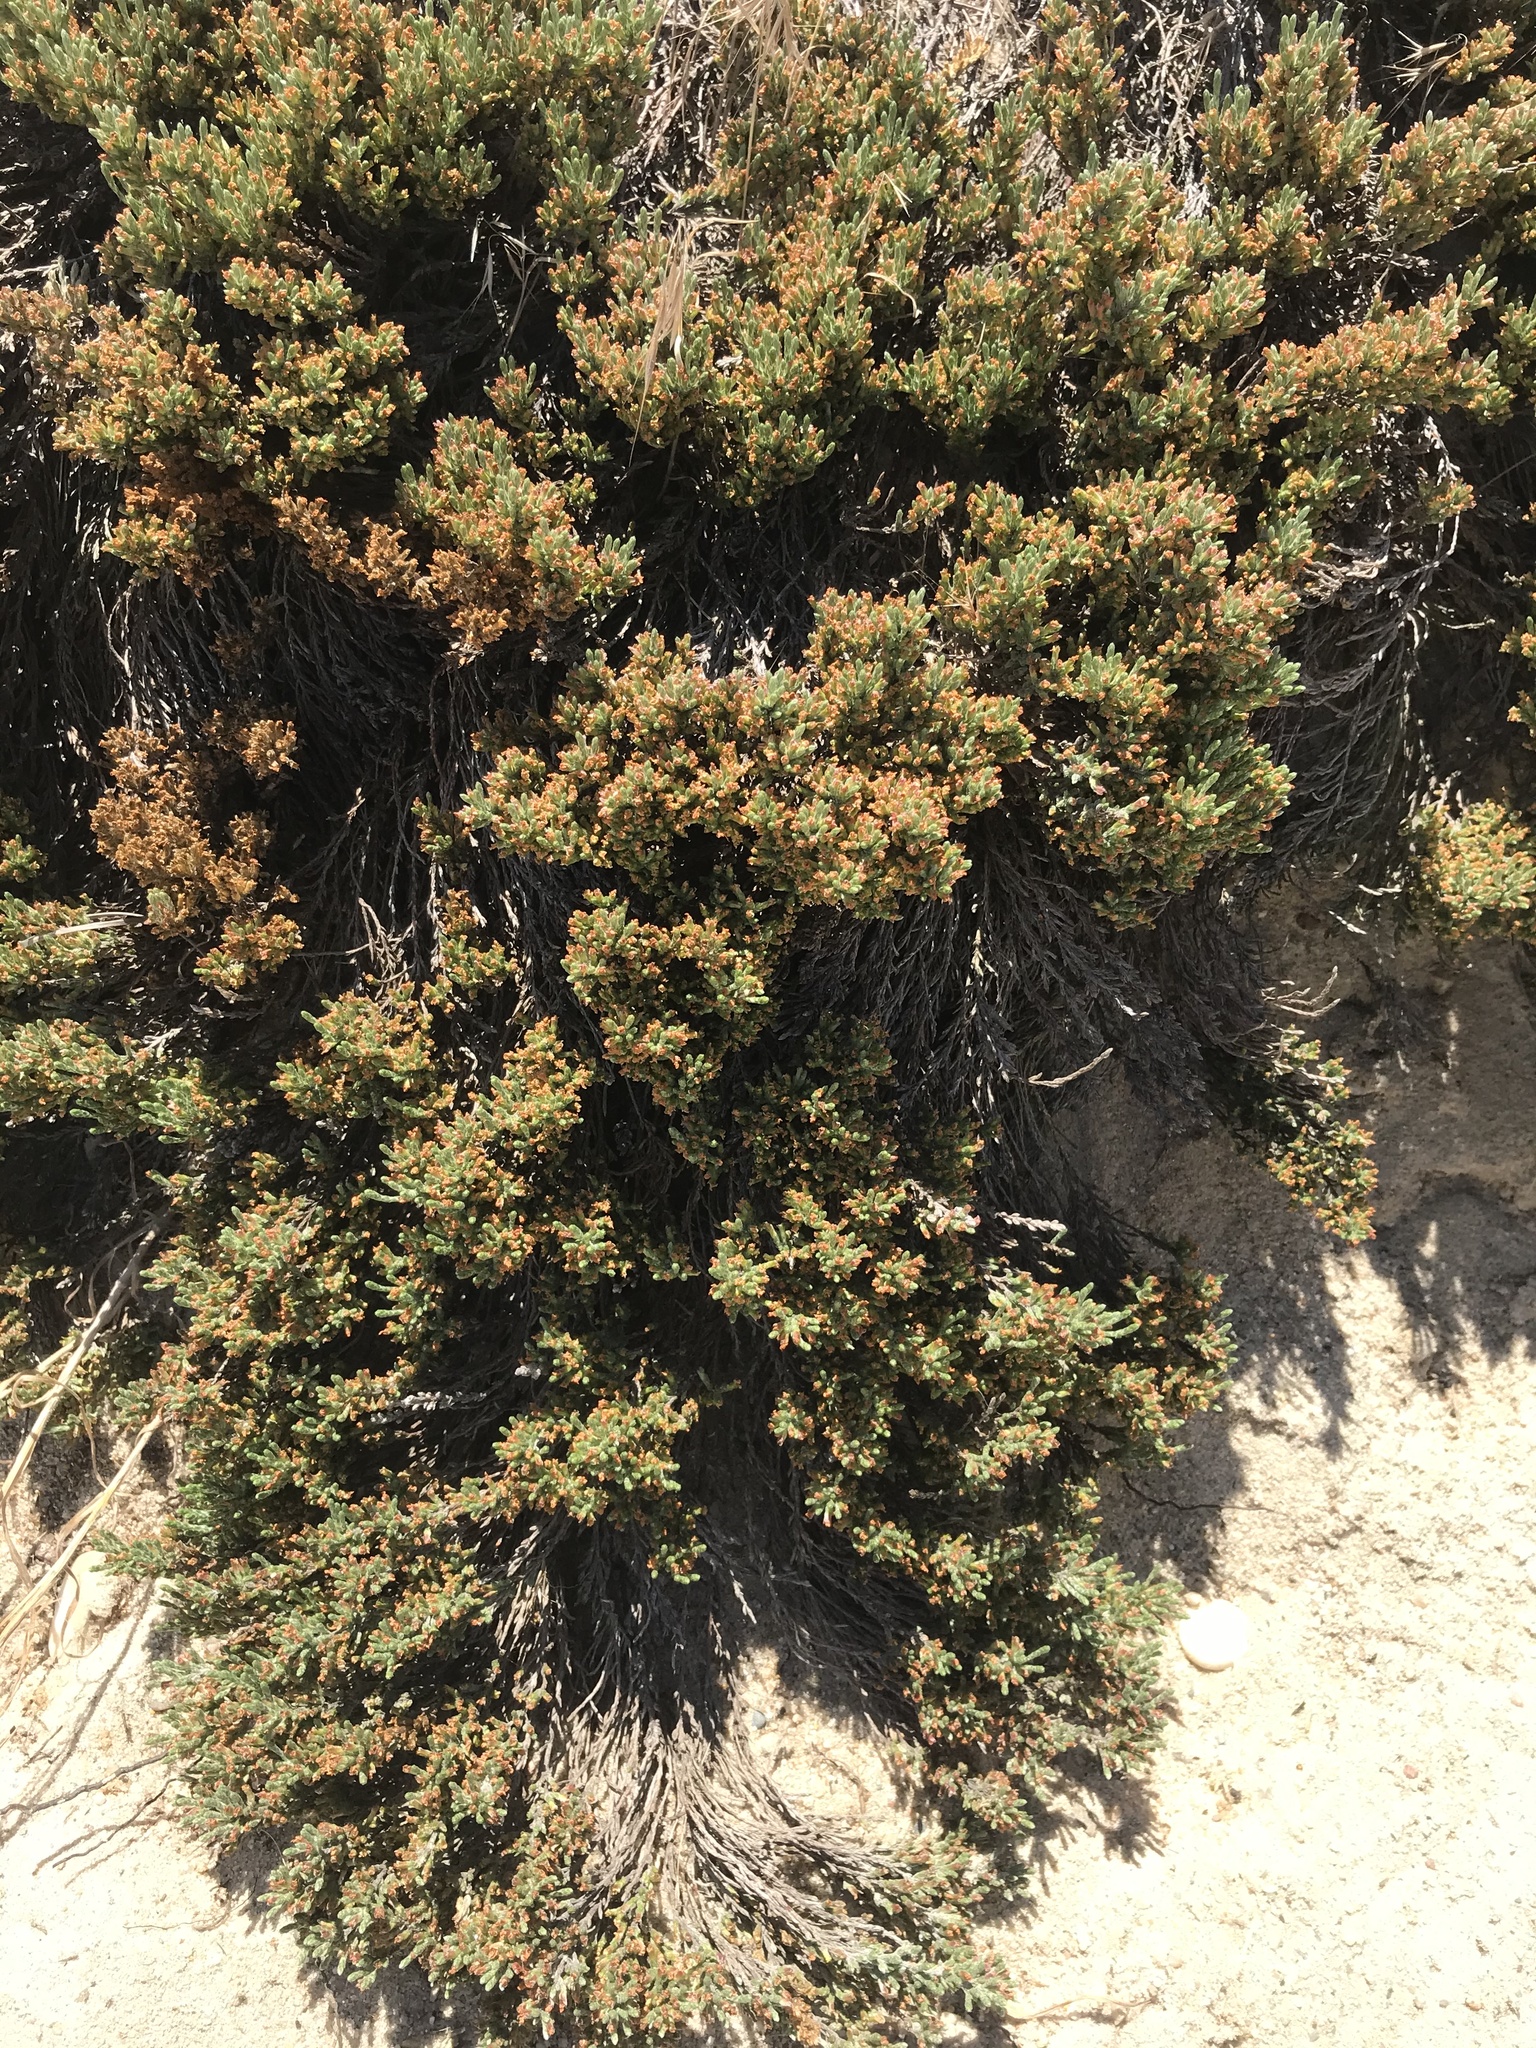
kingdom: Plantae
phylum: Tracheophyta
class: Magnoliopsida
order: Malvales
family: Cistaceae
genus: Hudsonia
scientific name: Hudsonia tomentosa
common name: Beach-heath
